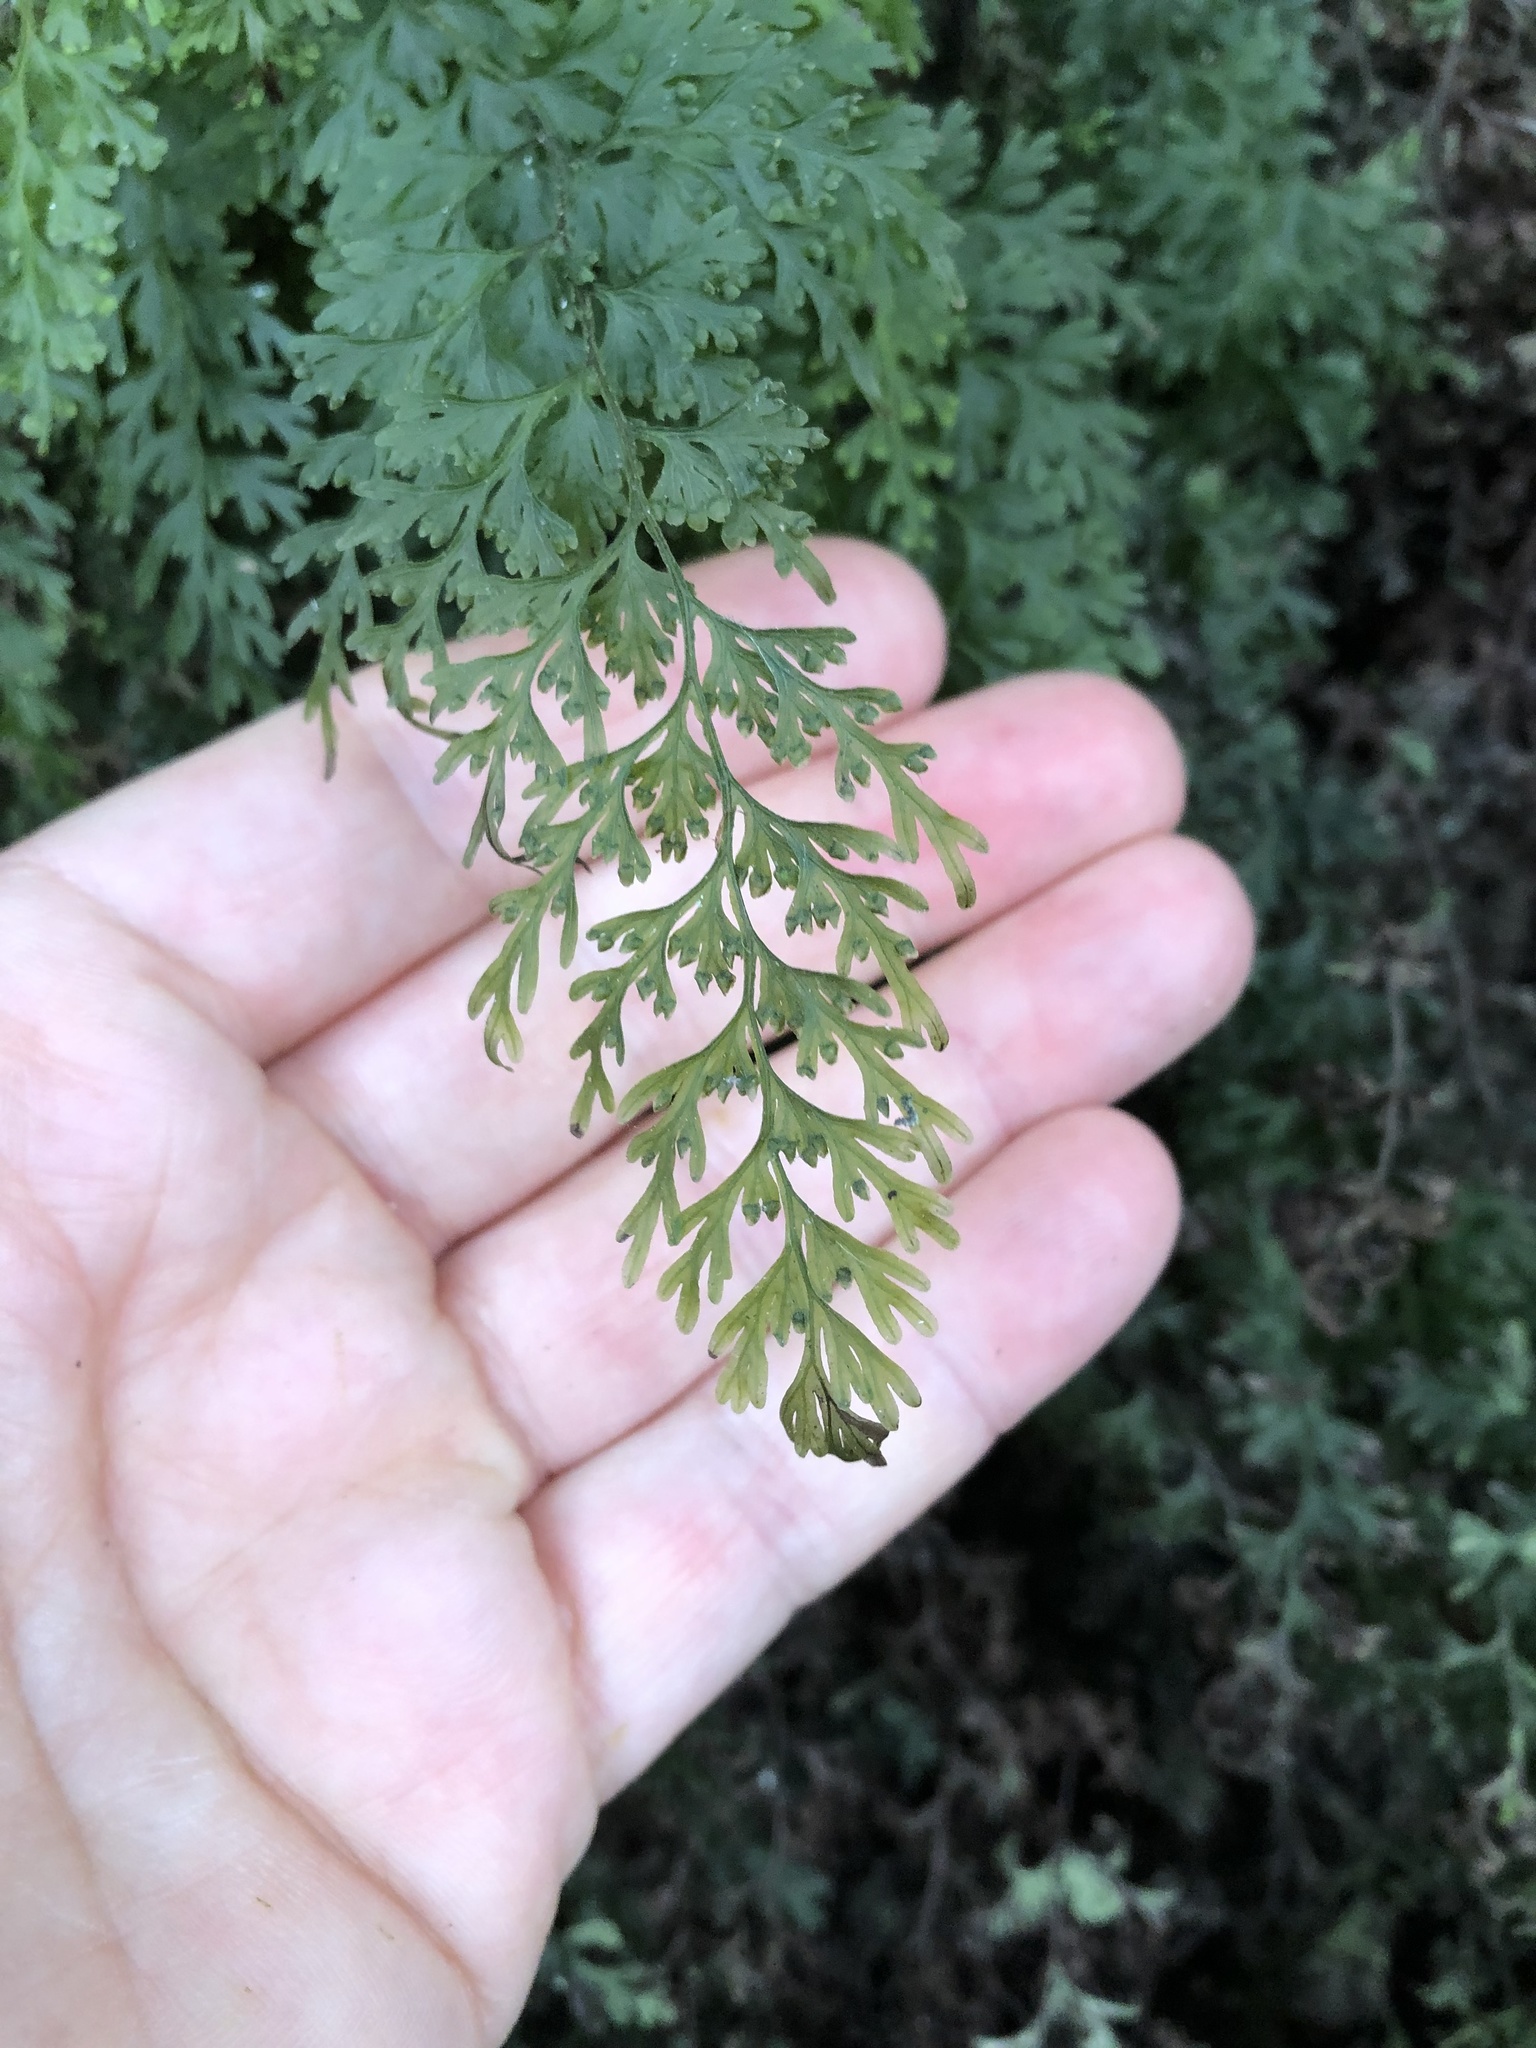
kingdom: Plantae
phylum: Tracheophyta
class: Polypodiopsida
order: Hymenophyllales
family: Hymenophyllaceae
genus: Hymenophyllum
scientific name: Hymenophyllum demissum
